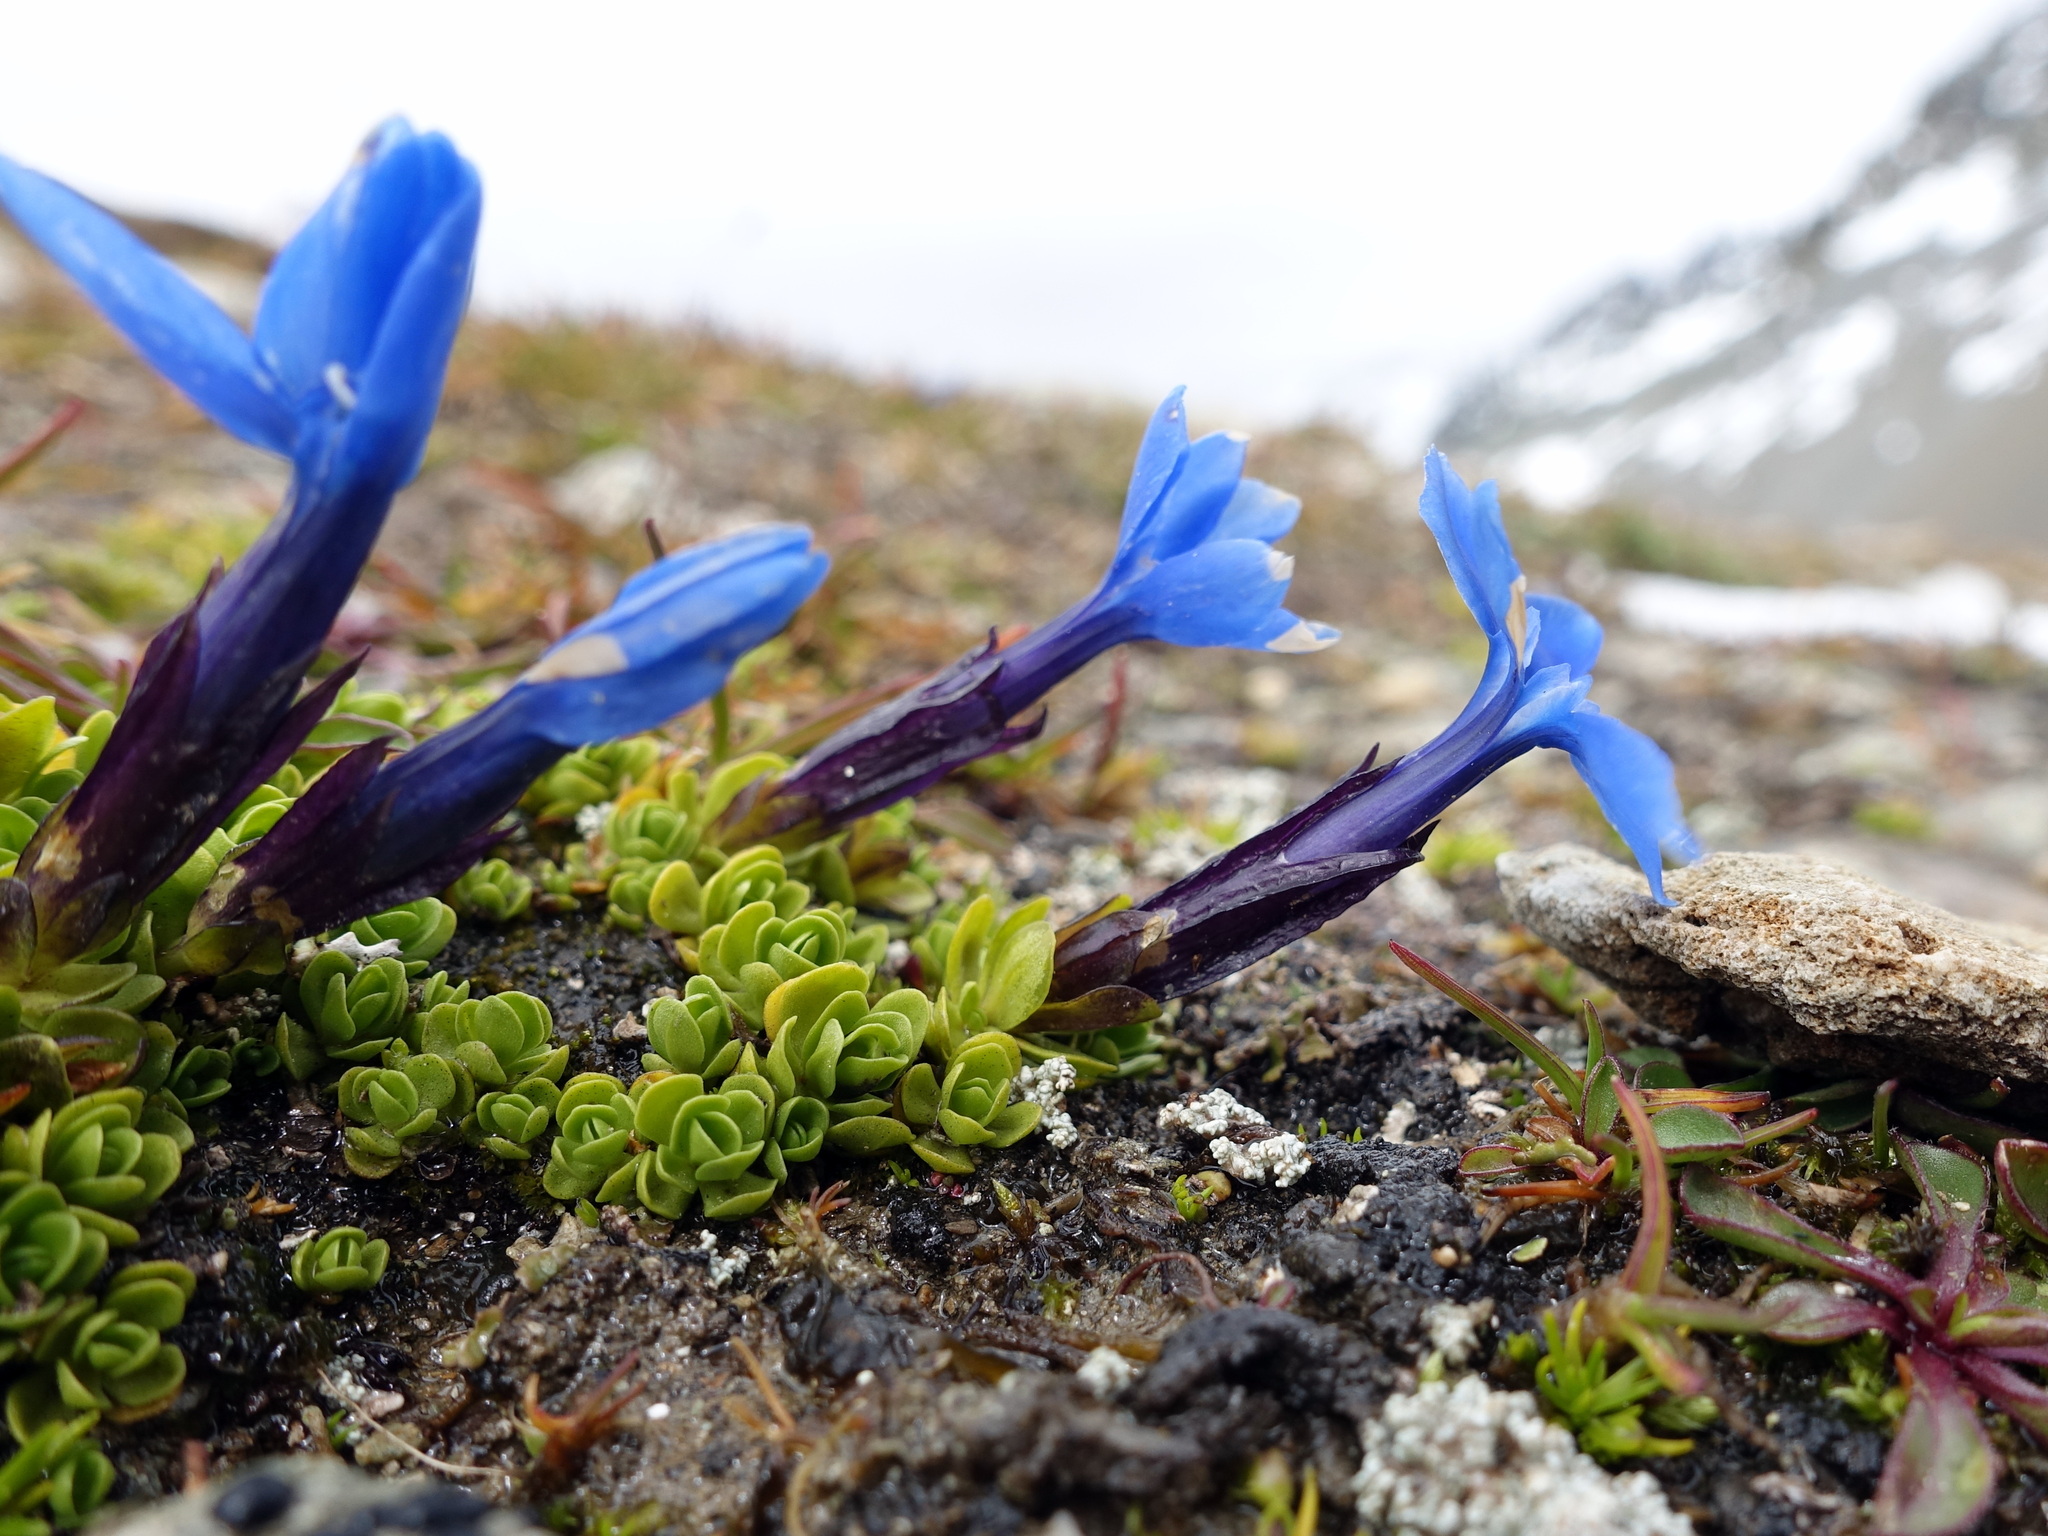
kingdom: Plantae
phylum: Tracheophyta
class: Magnoliopsida
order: Gentianales
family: Gentianaceae
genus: Gentiana
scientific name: Gentiana bavarica
